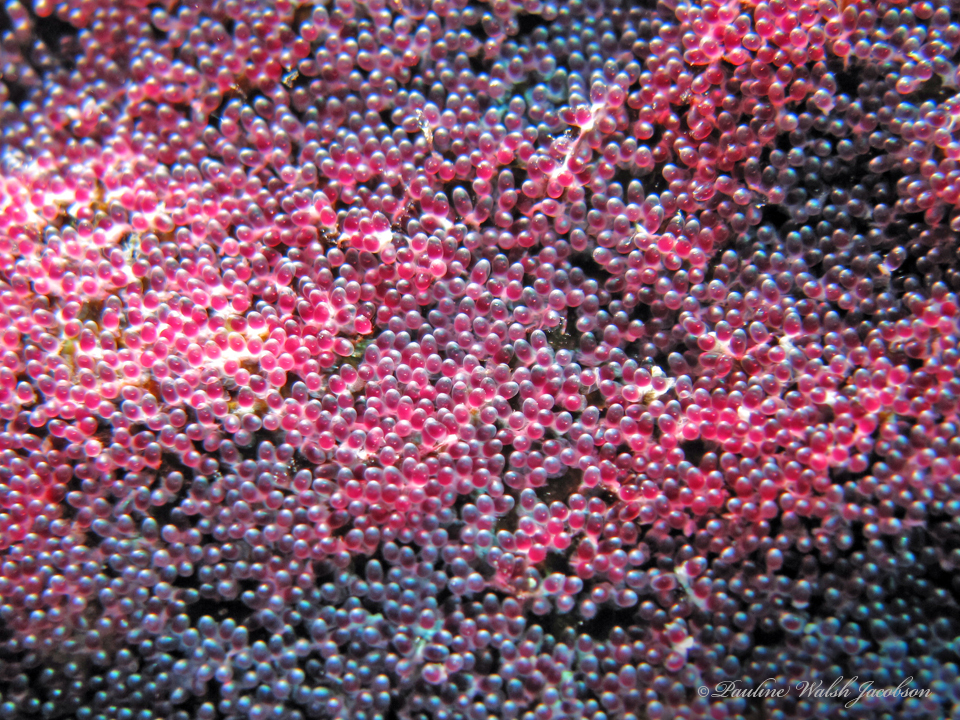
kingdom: Animalia
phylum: Chordata
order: Perciformes
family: Pomacentridae
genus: Abudefduf
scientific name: Abudefduf saxatilis
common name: Sergeant major
